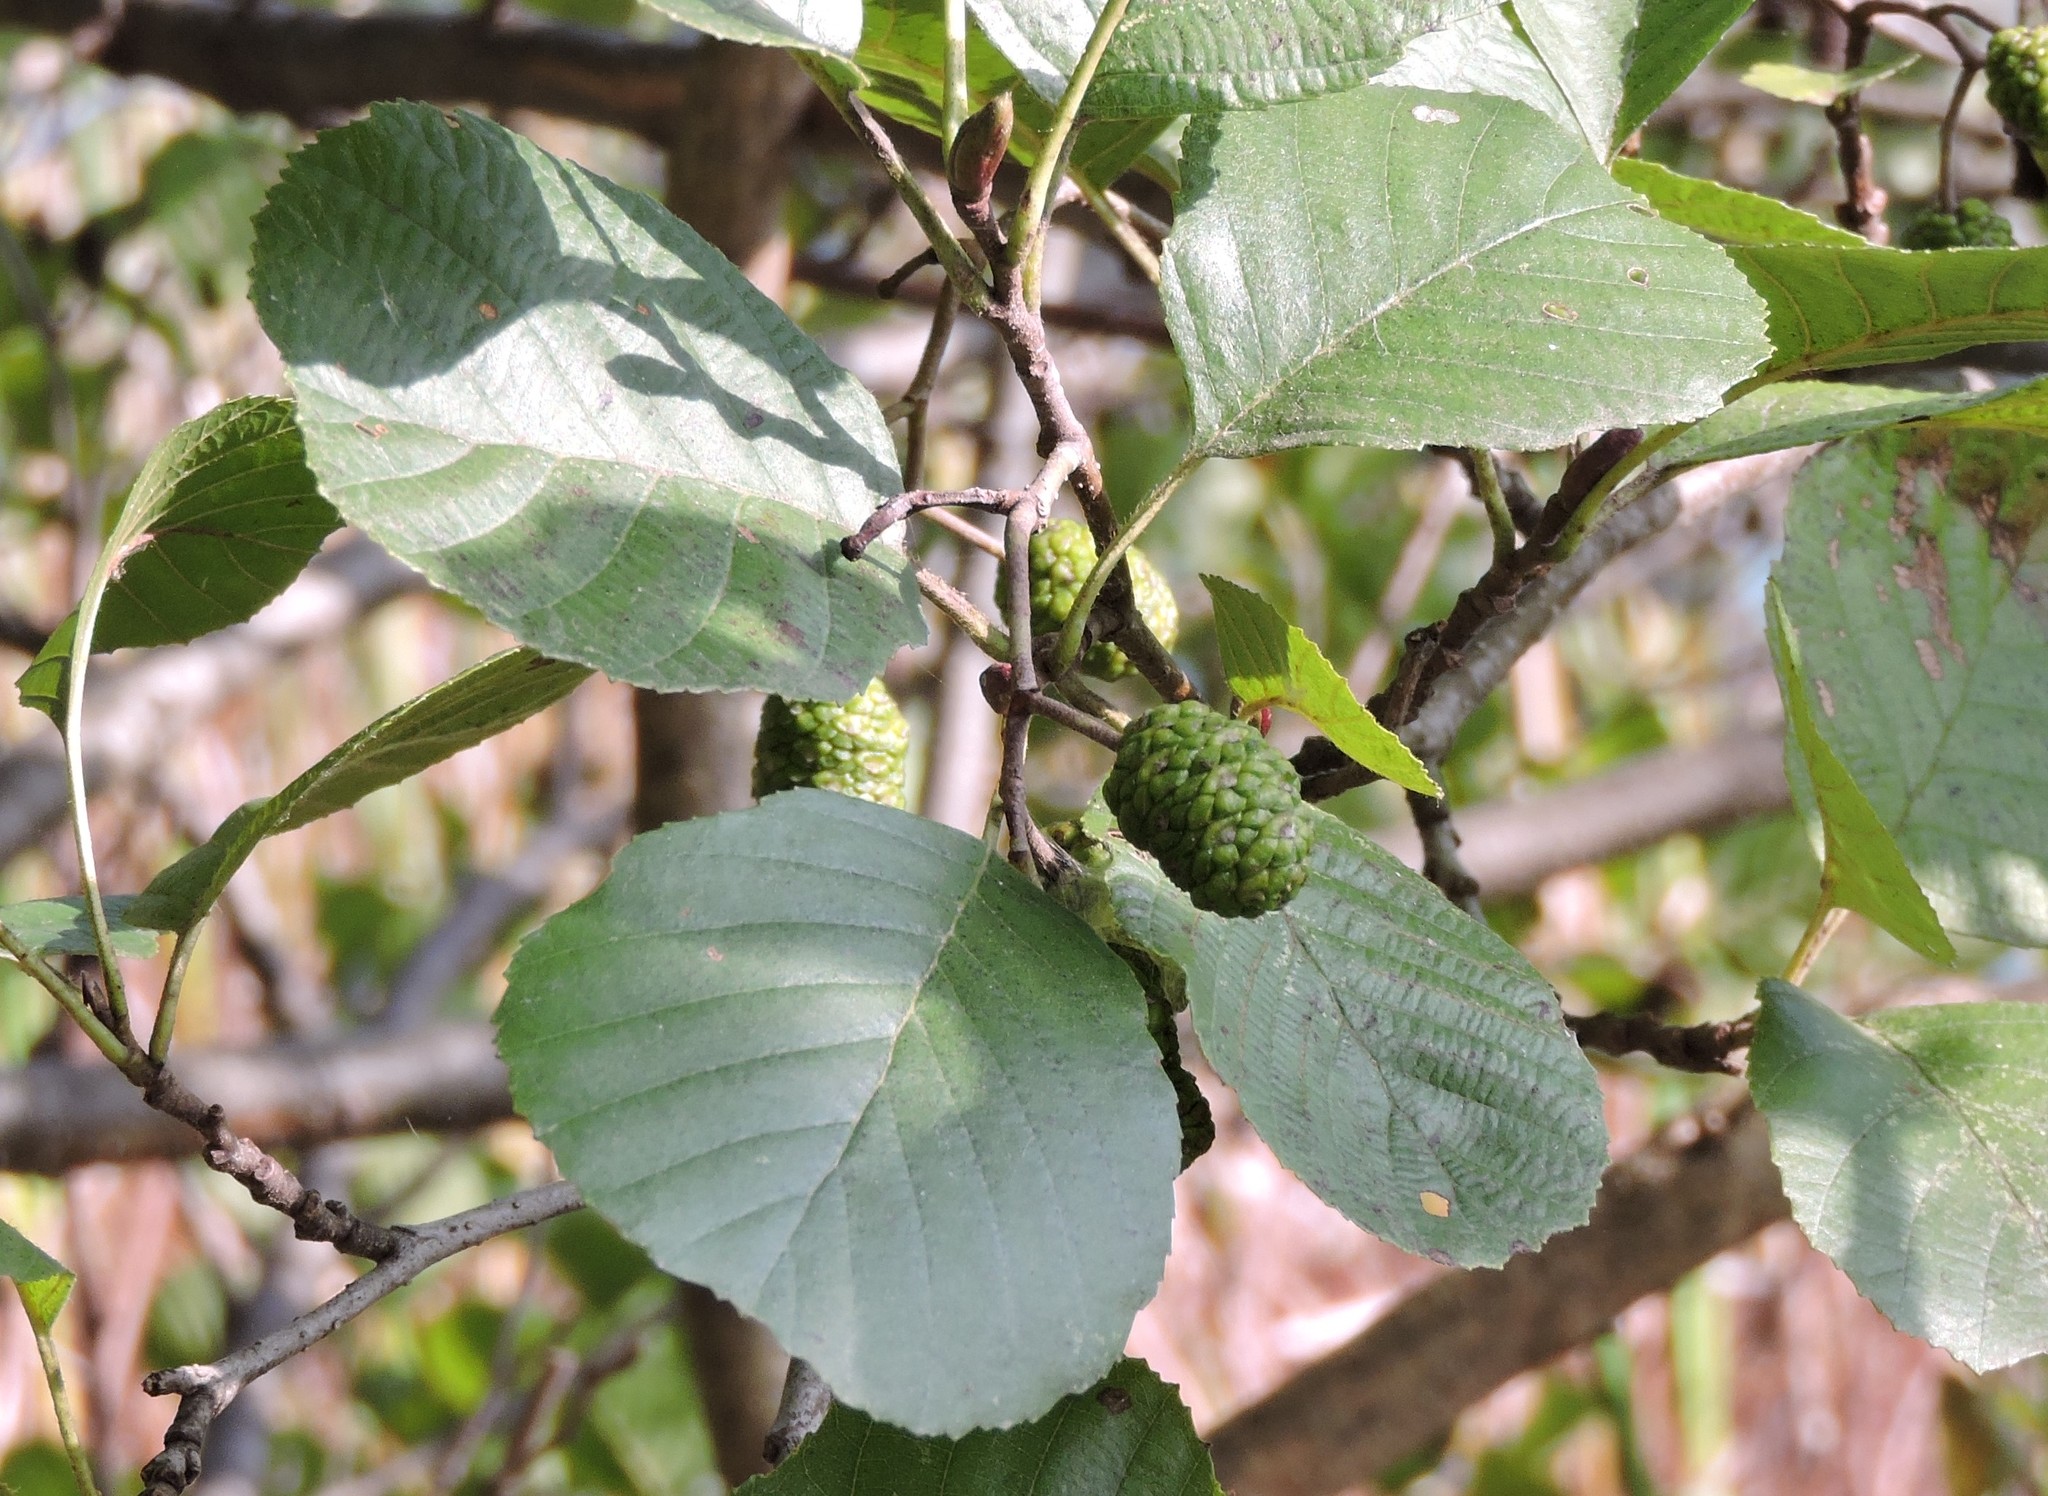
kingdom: Plantae
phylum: Tracheophyta
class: Magnoliopsida
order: Fagales
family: Betulaceae
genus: Alnus
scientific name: Alnus glutinosa
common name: Black alder
